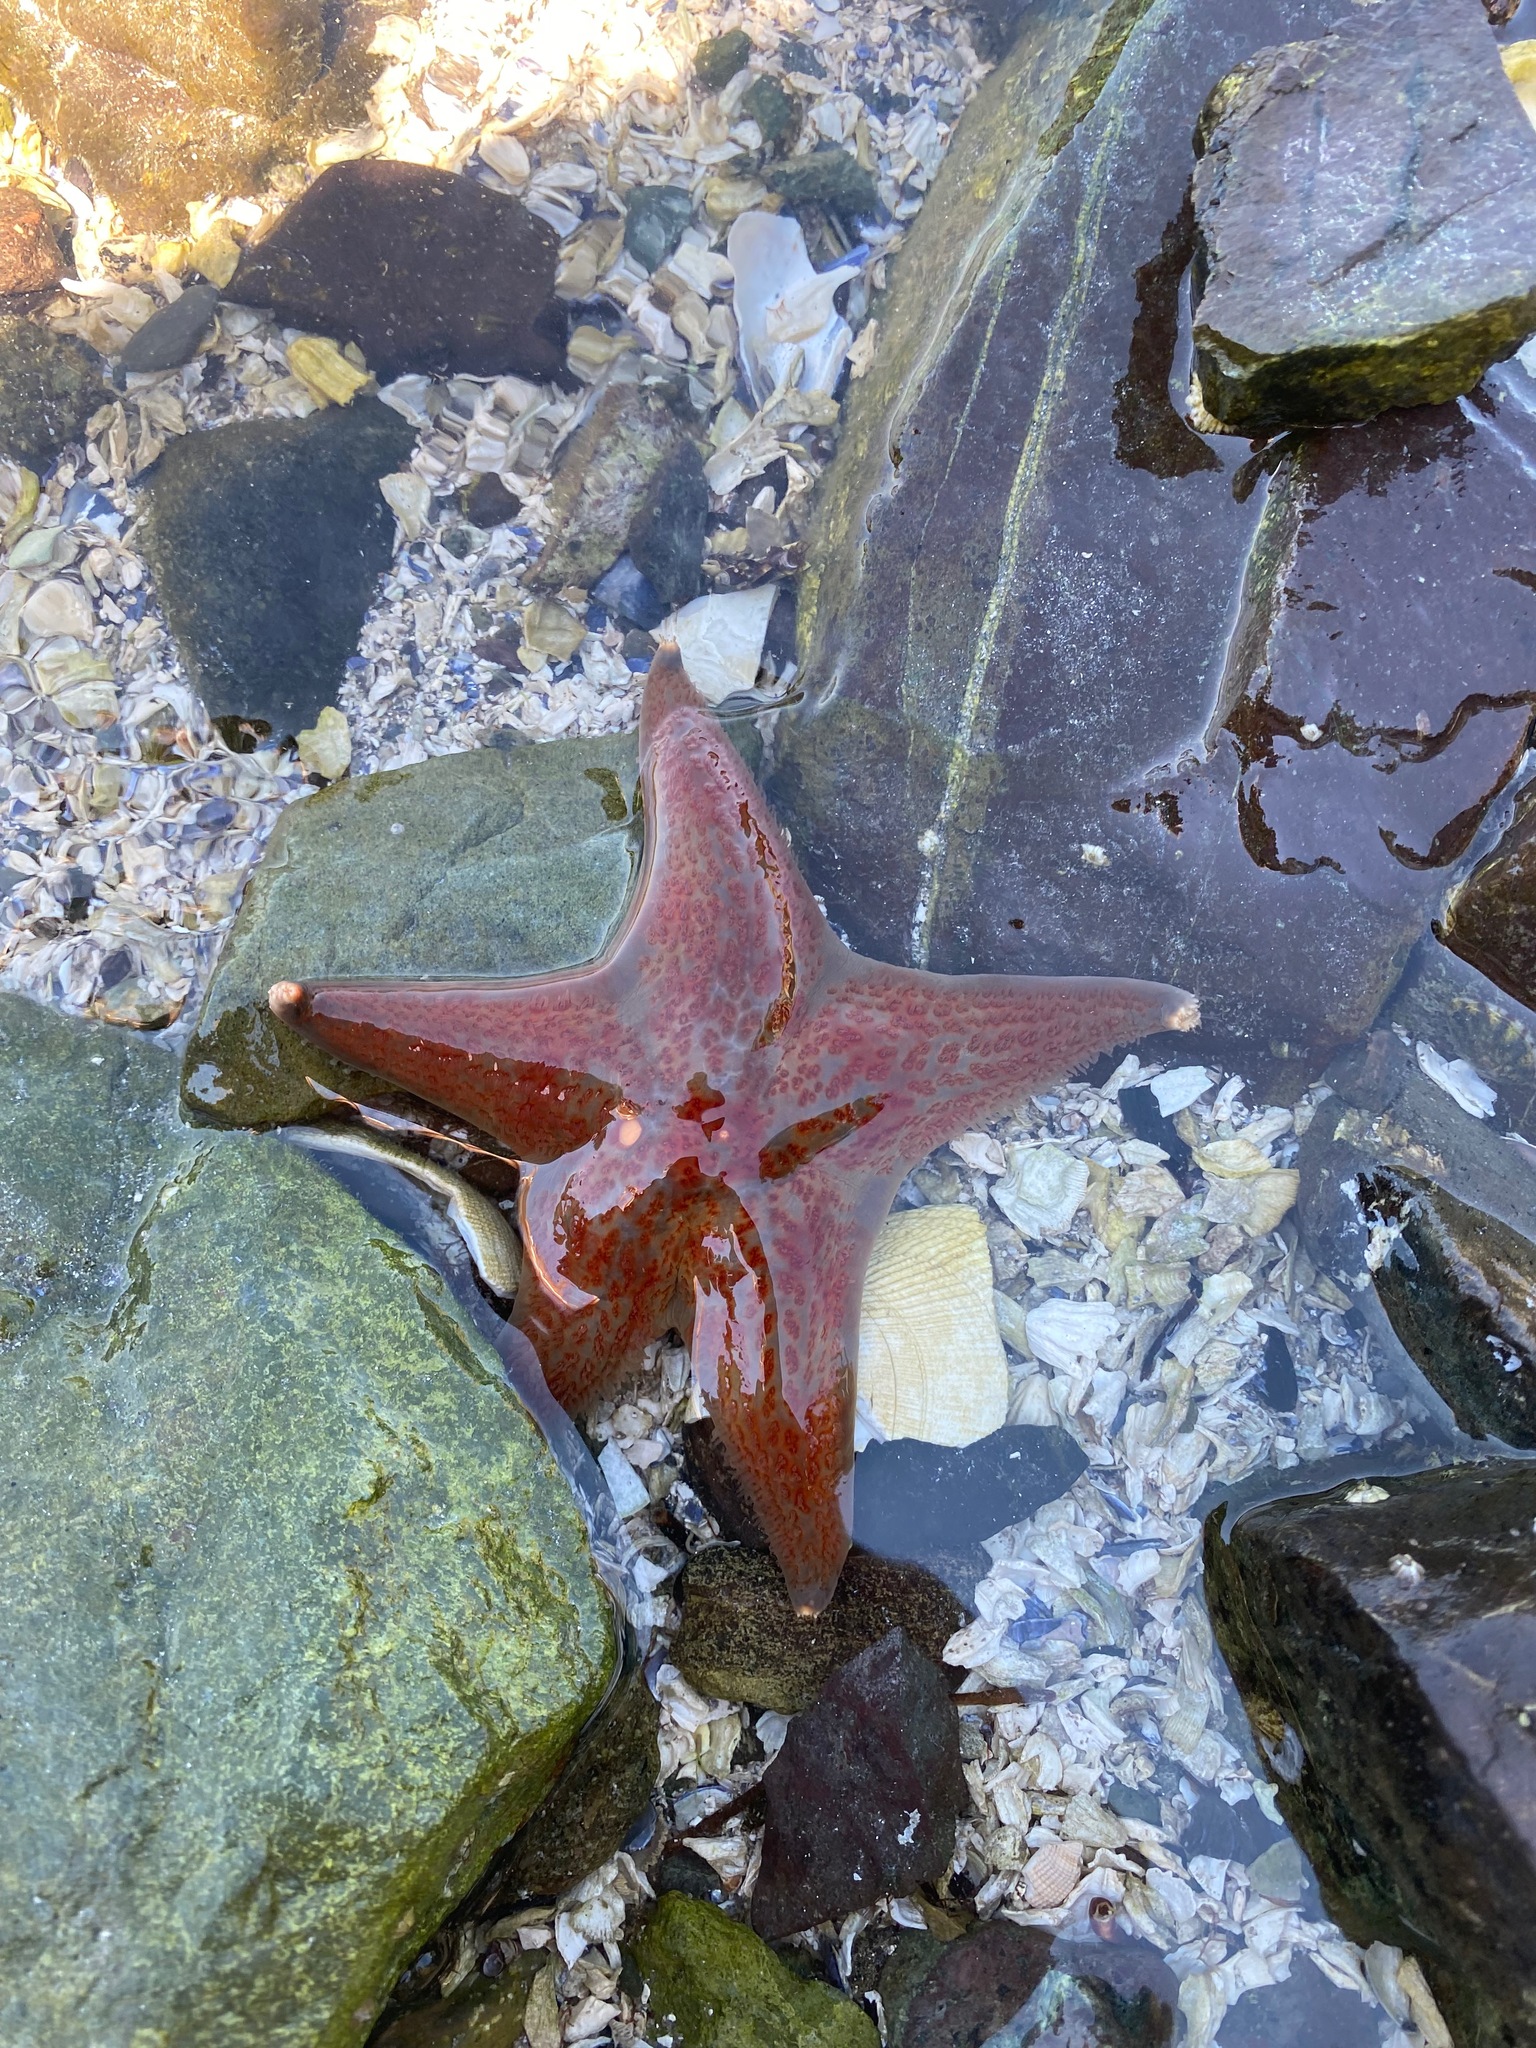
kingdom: Animalia
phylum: Echinodermata
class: Asteroidea
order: Valvatida
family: Asteropseidae
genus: Dermasterias
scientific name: Dermasterias imbricata
